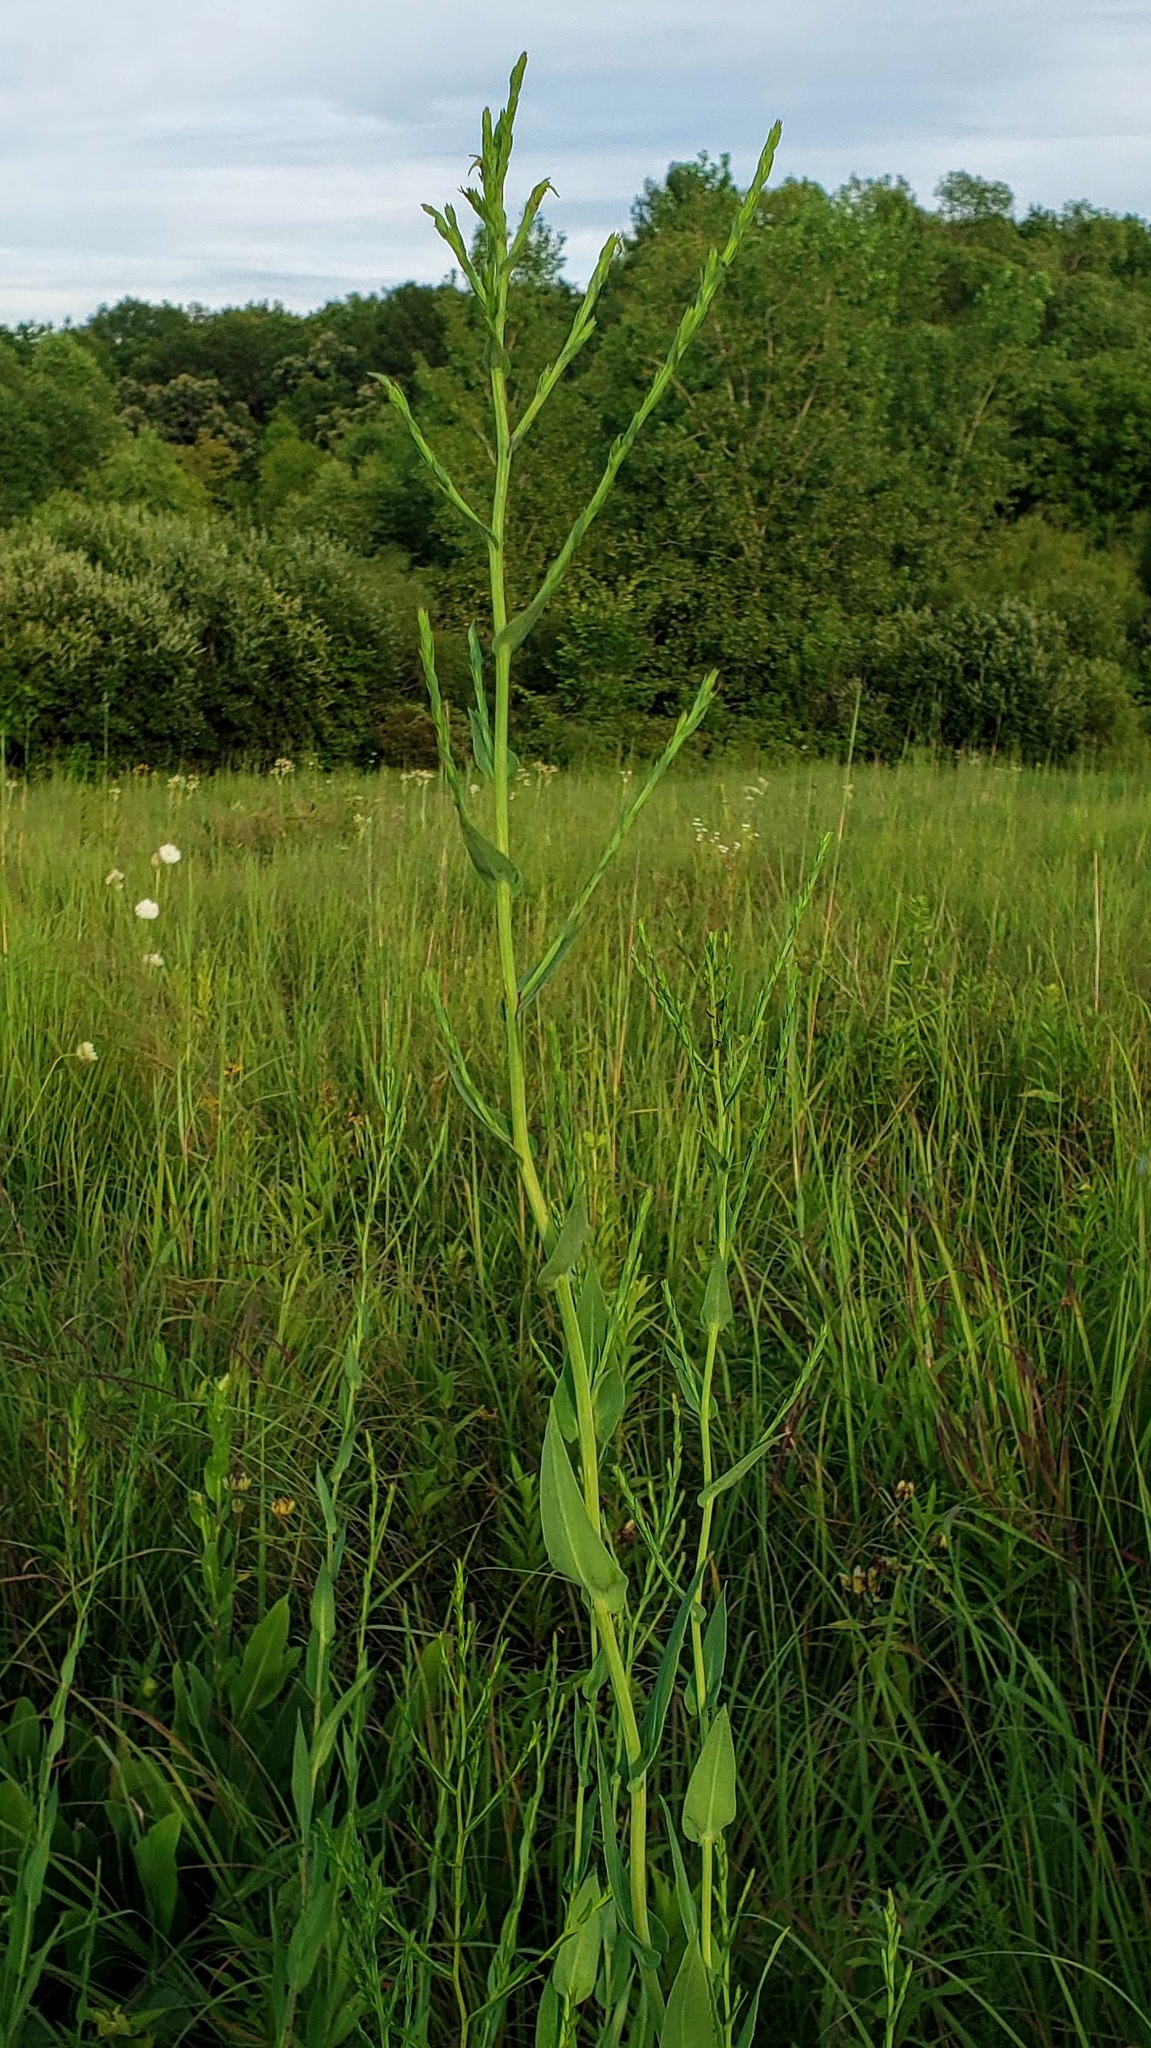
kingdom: Plantae
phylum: Tracheophyta
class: Magnoliopsida
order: Asterales
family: Asteraceae
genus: Symphyotrichum
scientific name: Symphyotrichum laeve
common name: Glaucous aster
